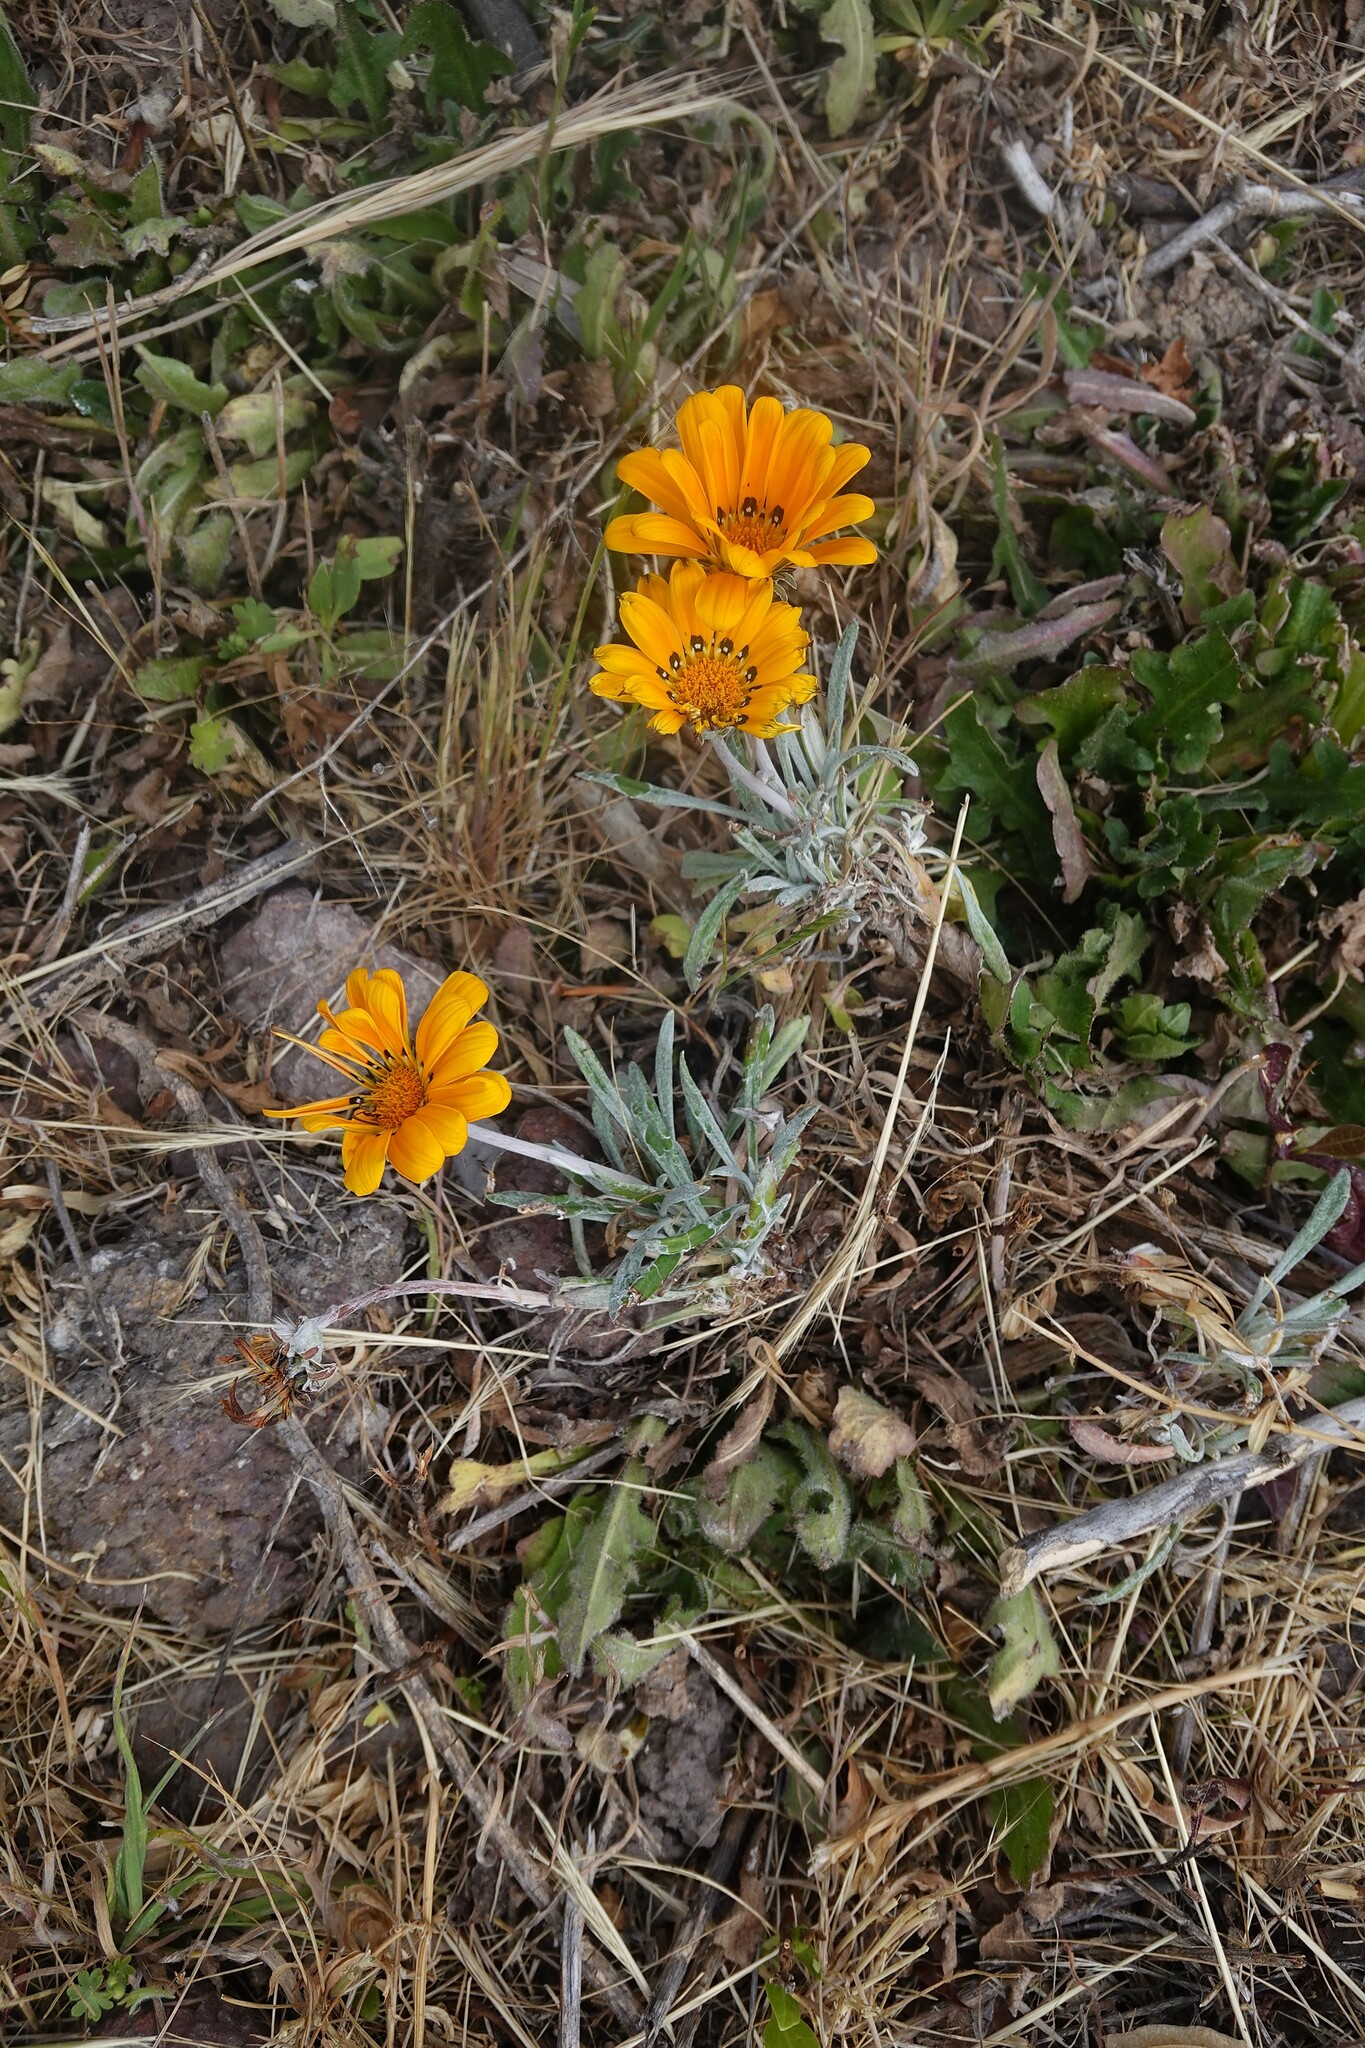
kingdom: Plantae
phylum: Tracheophyta
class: Magnoliopsida
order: Asterales
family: Asteraceae
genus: Gazania
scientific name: Gazania splendens
